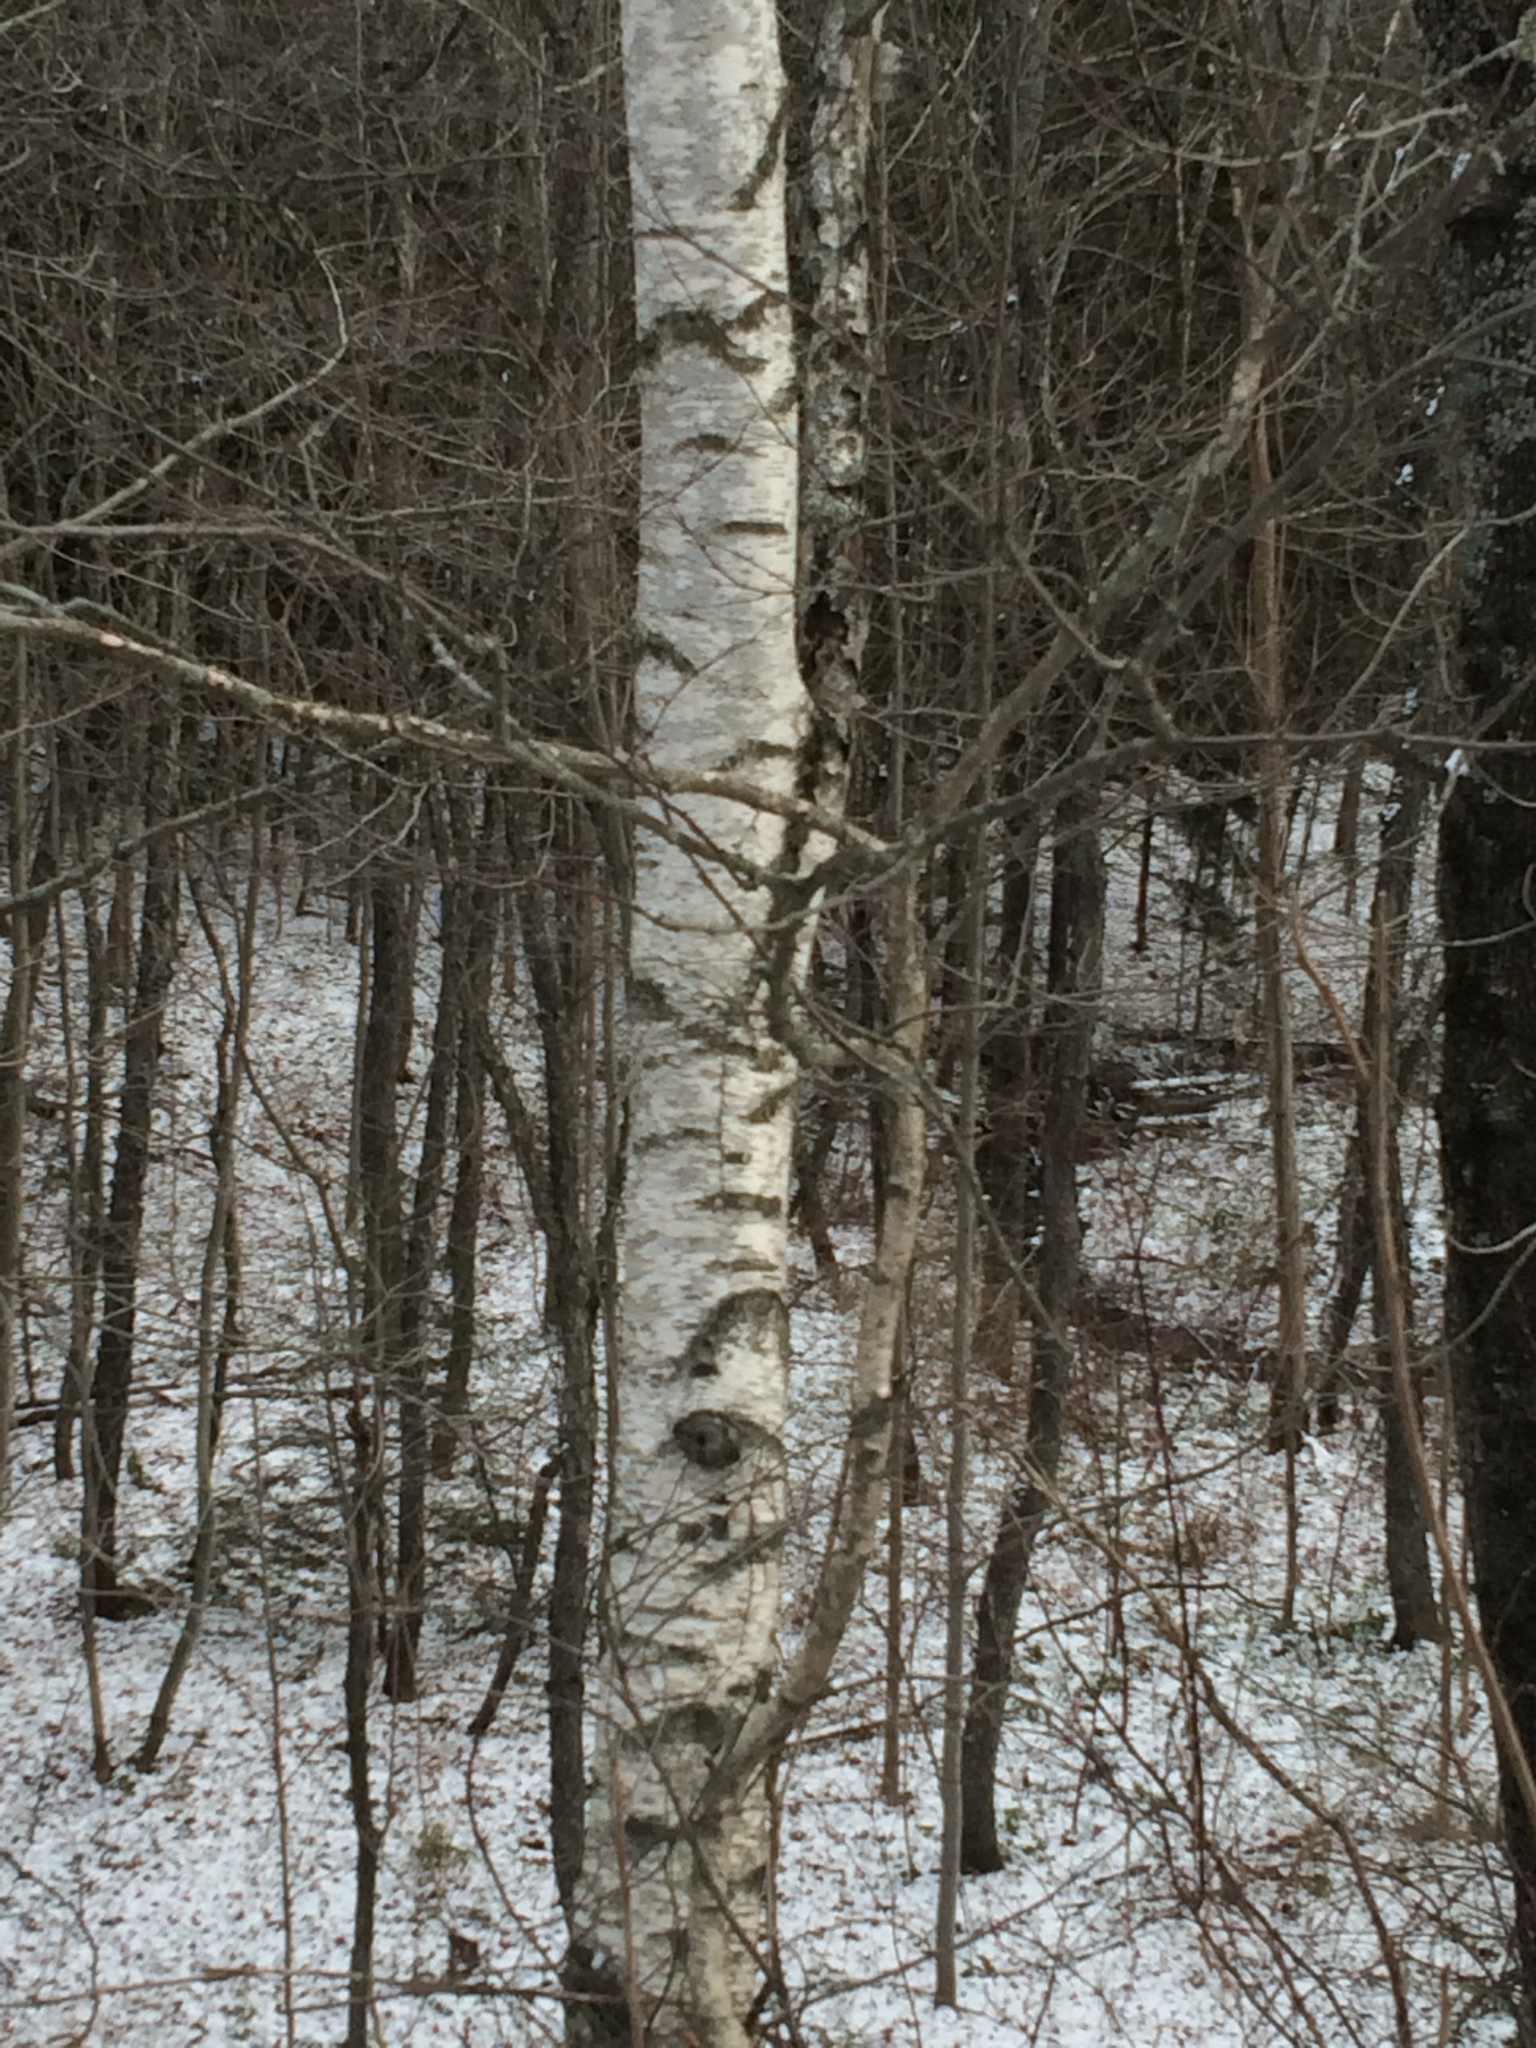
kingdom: Plantae
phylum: Tracheophyta
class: Magnoliopsida
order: Fagales
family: Betulaceae
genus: Betula
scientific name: Betula populifolia
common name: Fire birch
